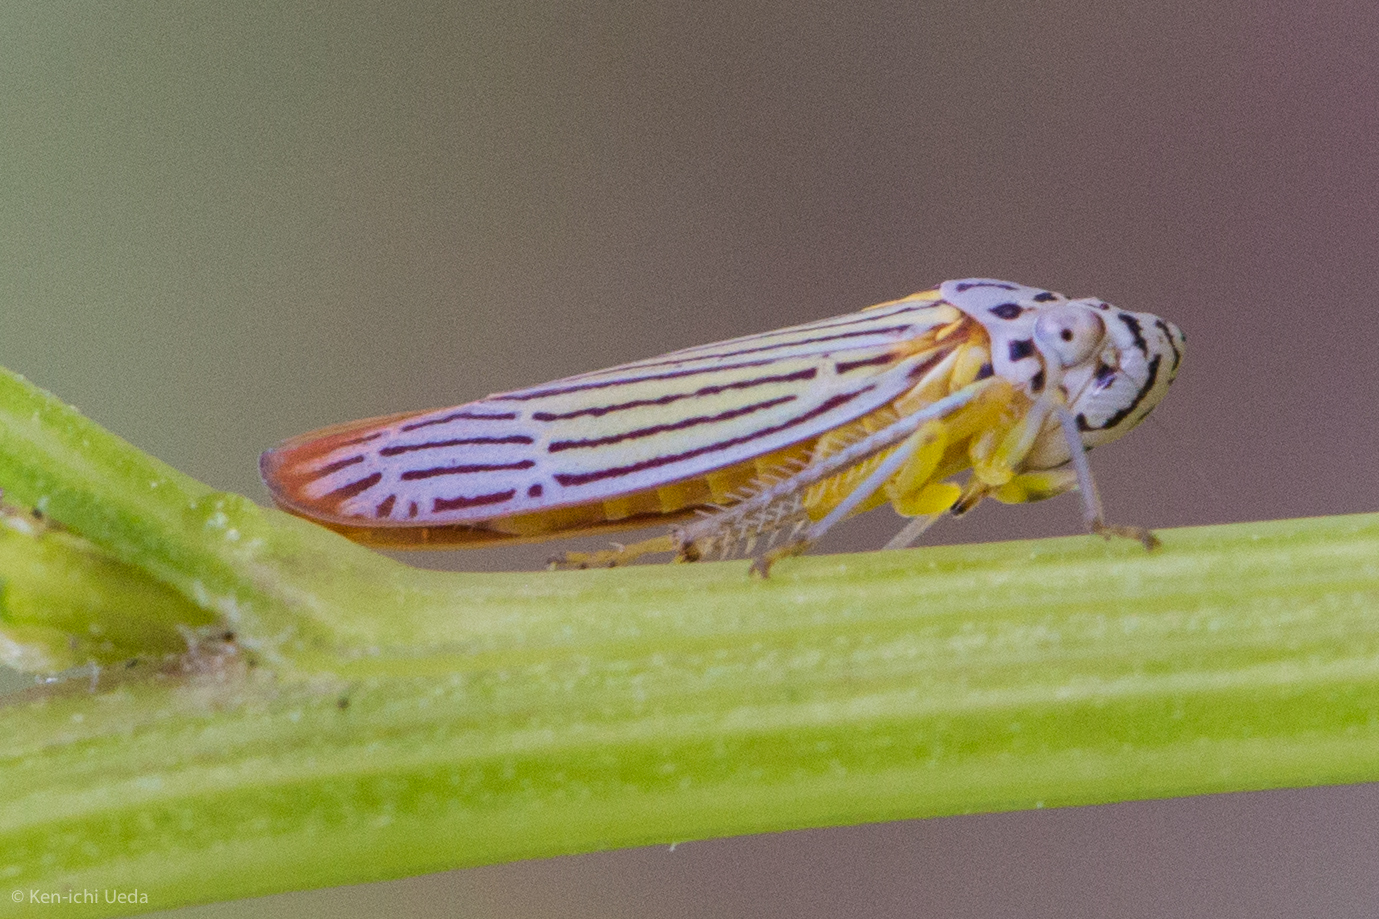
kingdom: Animalia
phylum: Arthropoda
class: Insecta
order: Hemiptera
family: Cicadellidae
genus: Graphocephala
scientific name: Graphocephala aurora
